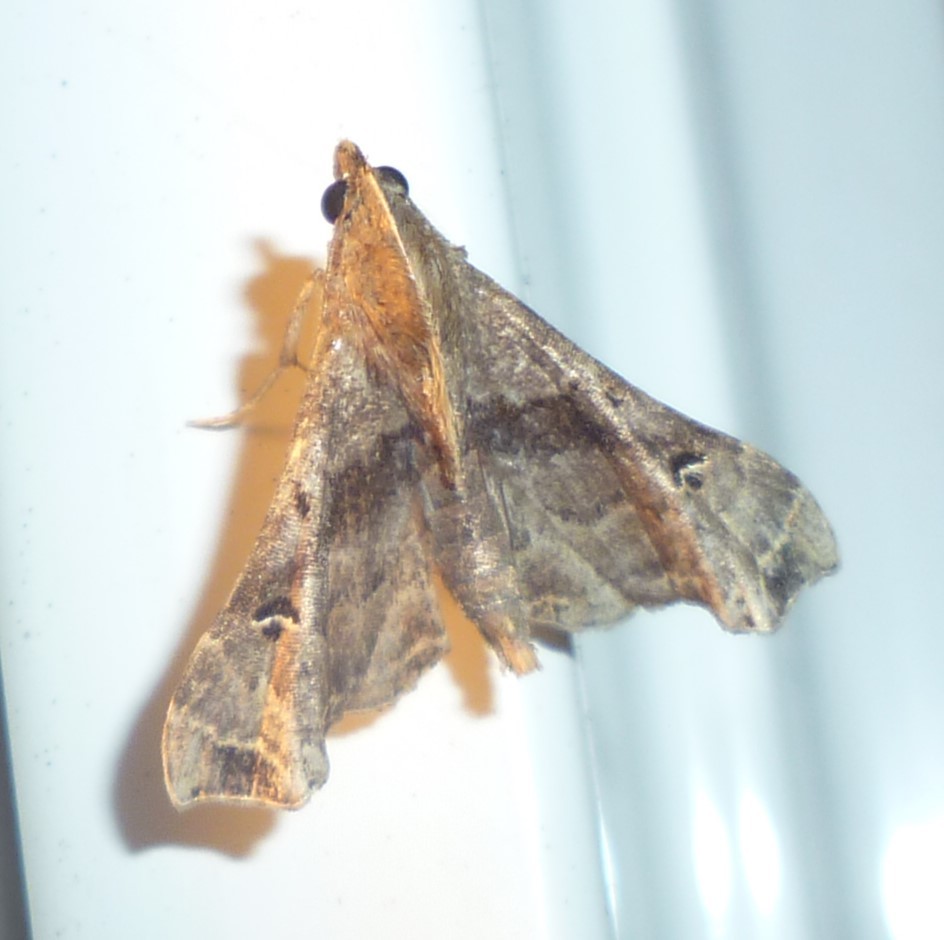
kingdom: Animalia
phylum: Arthropoda
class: Insecta
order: Lepidoptera
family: Erebidae
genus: Palthis
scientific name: Palthis asopialis
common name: Faint-spotted palthis moth
